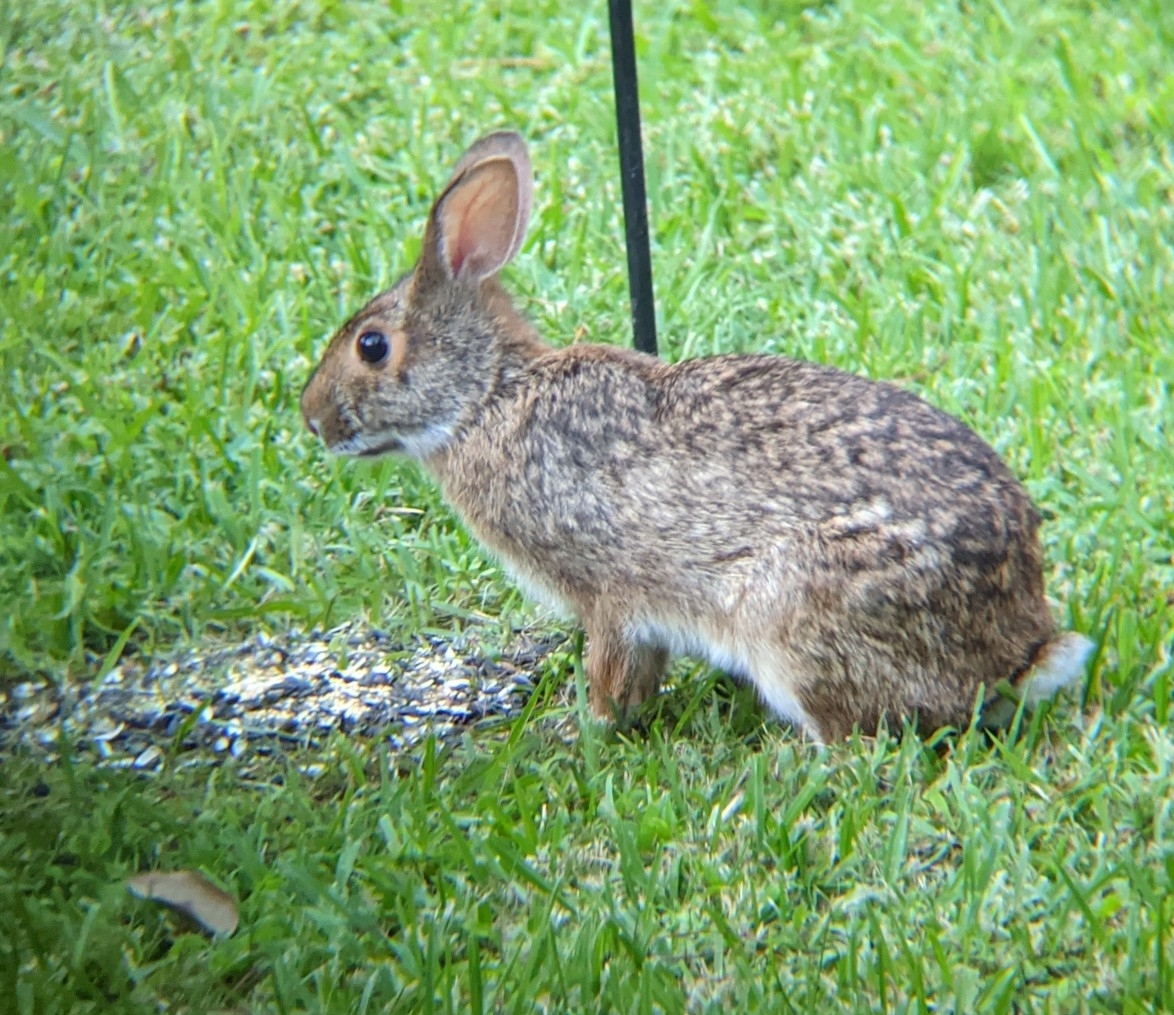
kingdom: Animalia
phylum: Chordata
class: Mammalia
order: Lagomorpha
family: Leporidae
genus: Sylvilagus
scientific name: Sylvilagus aquaticus
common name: Swamp rabbit
